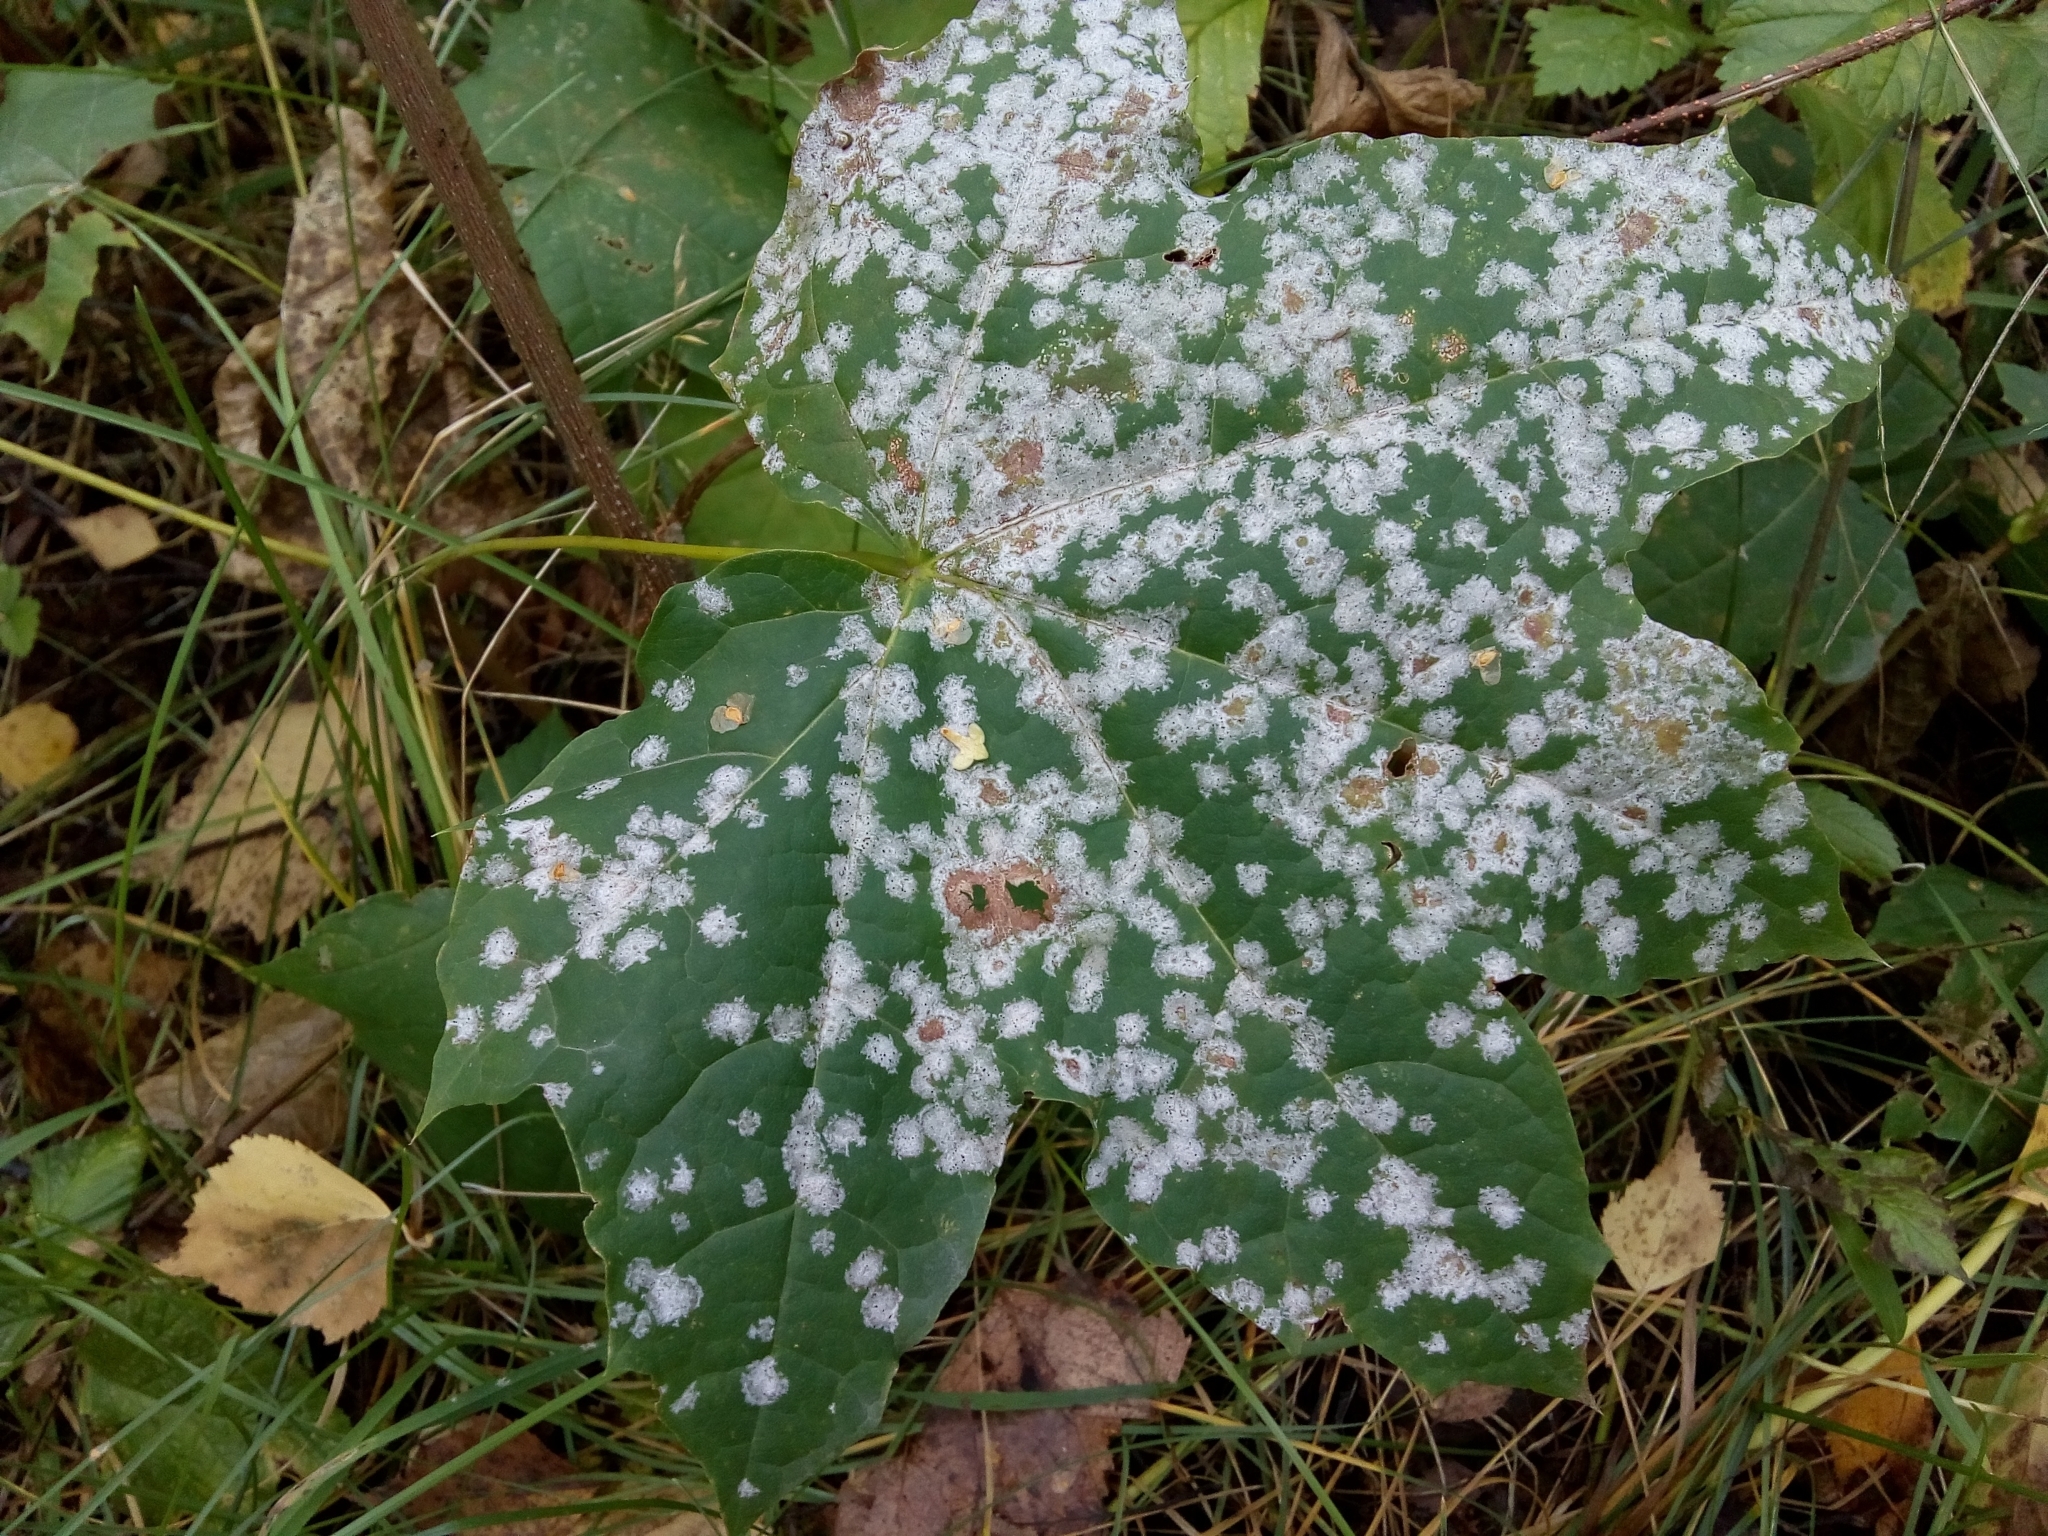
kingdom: Fungi
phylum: Ascomycota
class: Leotiomycetes
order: Helotiales
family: Erysiphaceae
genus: Sawadaea
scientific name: Sawadaea tulasnei
